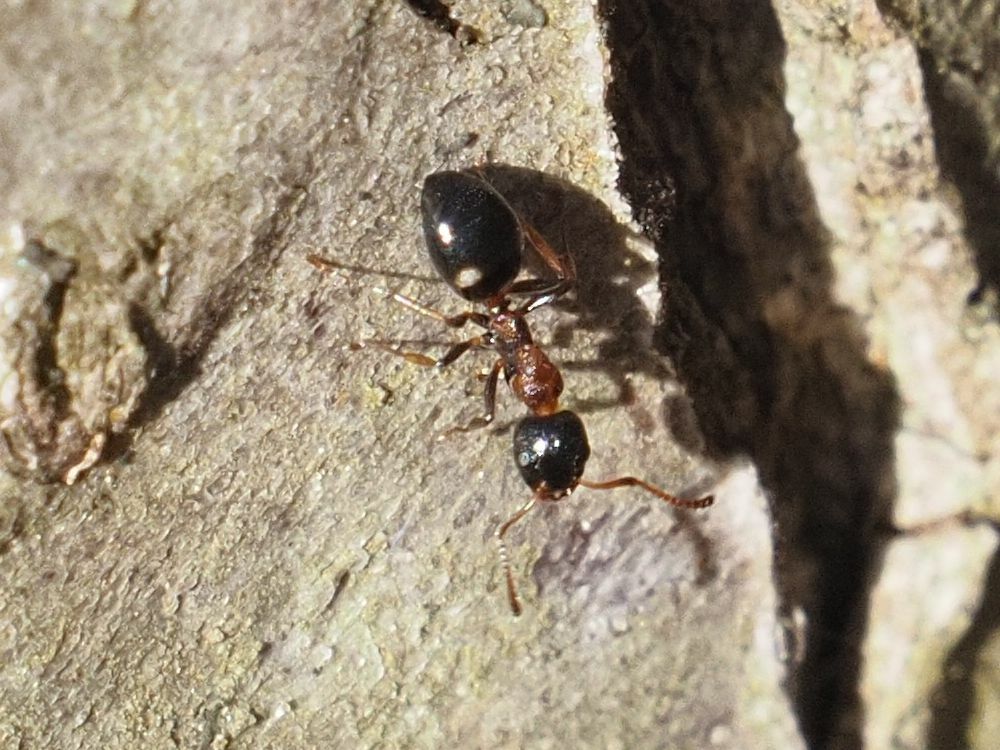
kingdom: Animalia
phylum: Arthropoda
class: Insecta
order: Hymenoptera
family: Formicidae
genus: Dolichoderus
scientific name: Dolichoderus quadripunctatus
